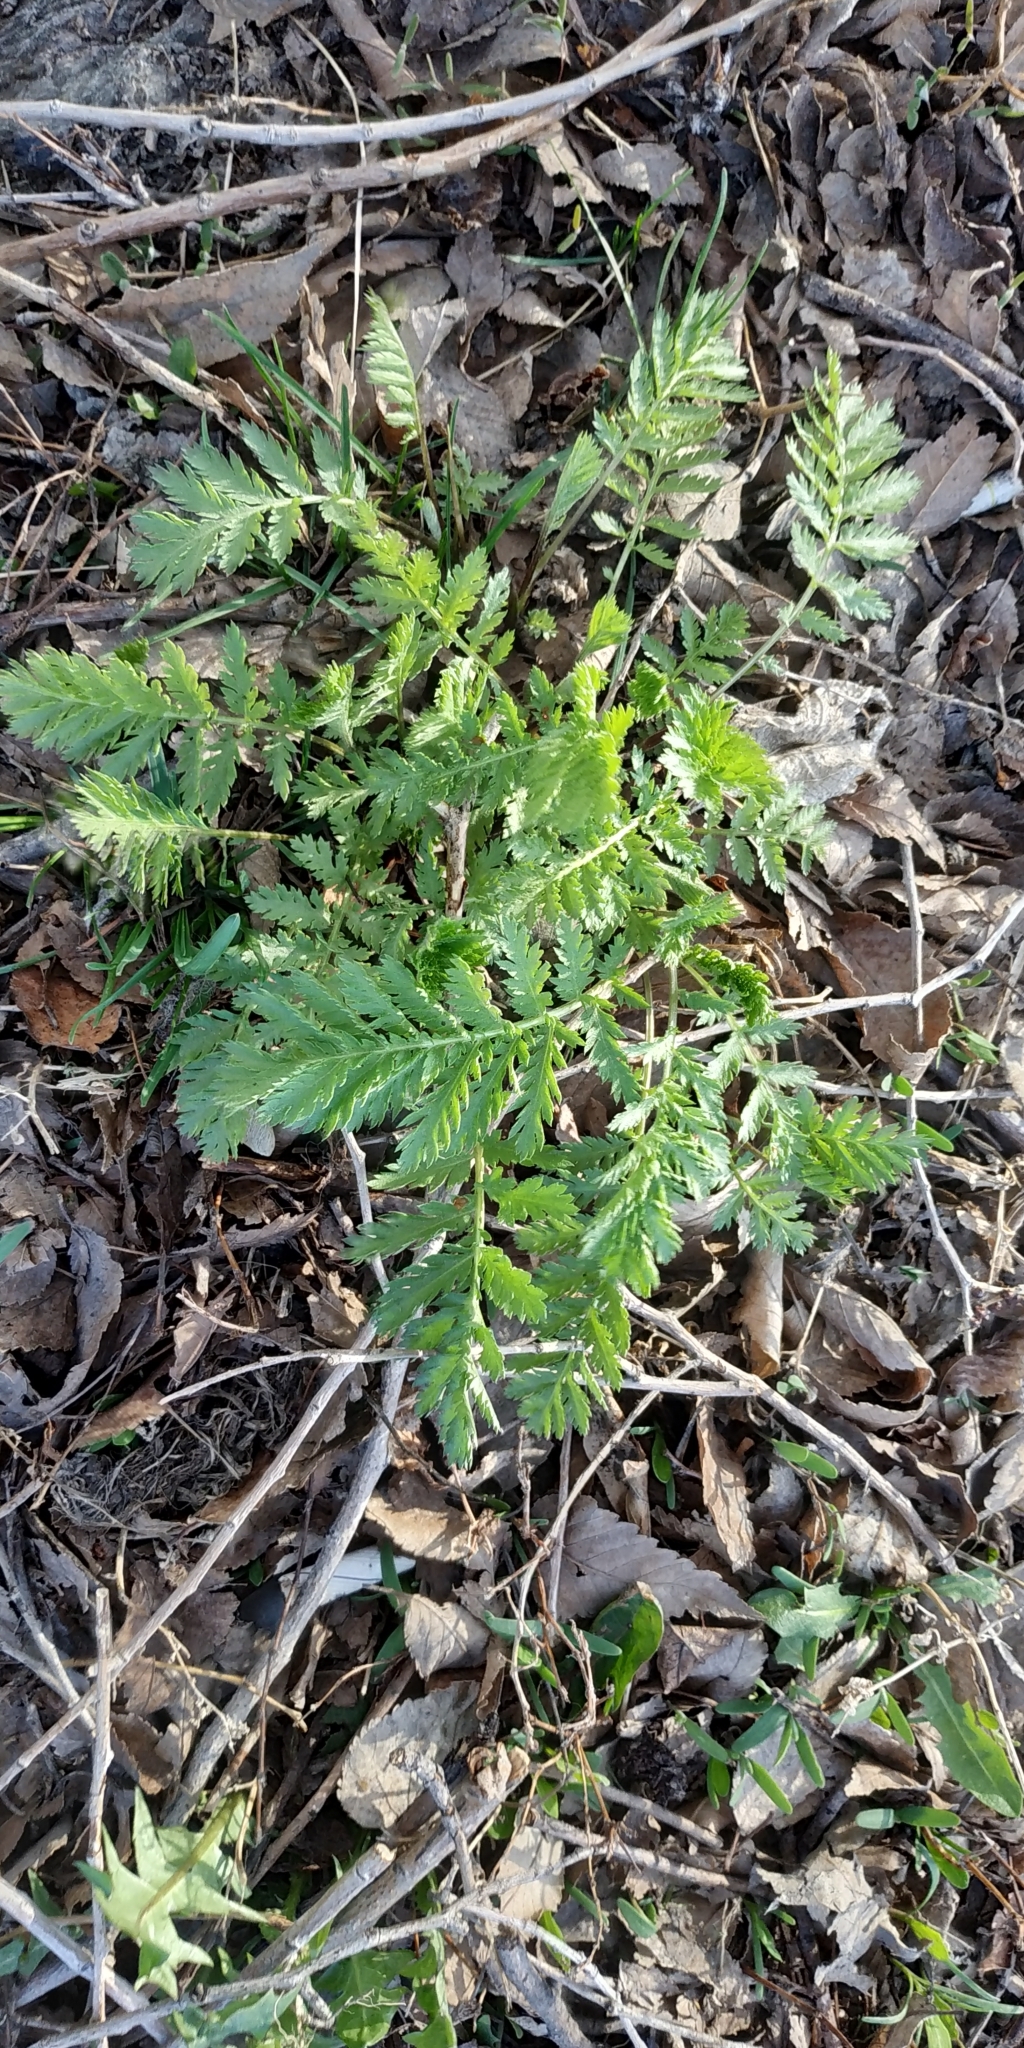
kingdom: Plantae
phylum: Tracheophyta
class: Magnoliopsida
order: Asterales
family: Asteraceae
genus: Tanacetum
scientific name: Tanacetum vulgare
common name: Common tansy
